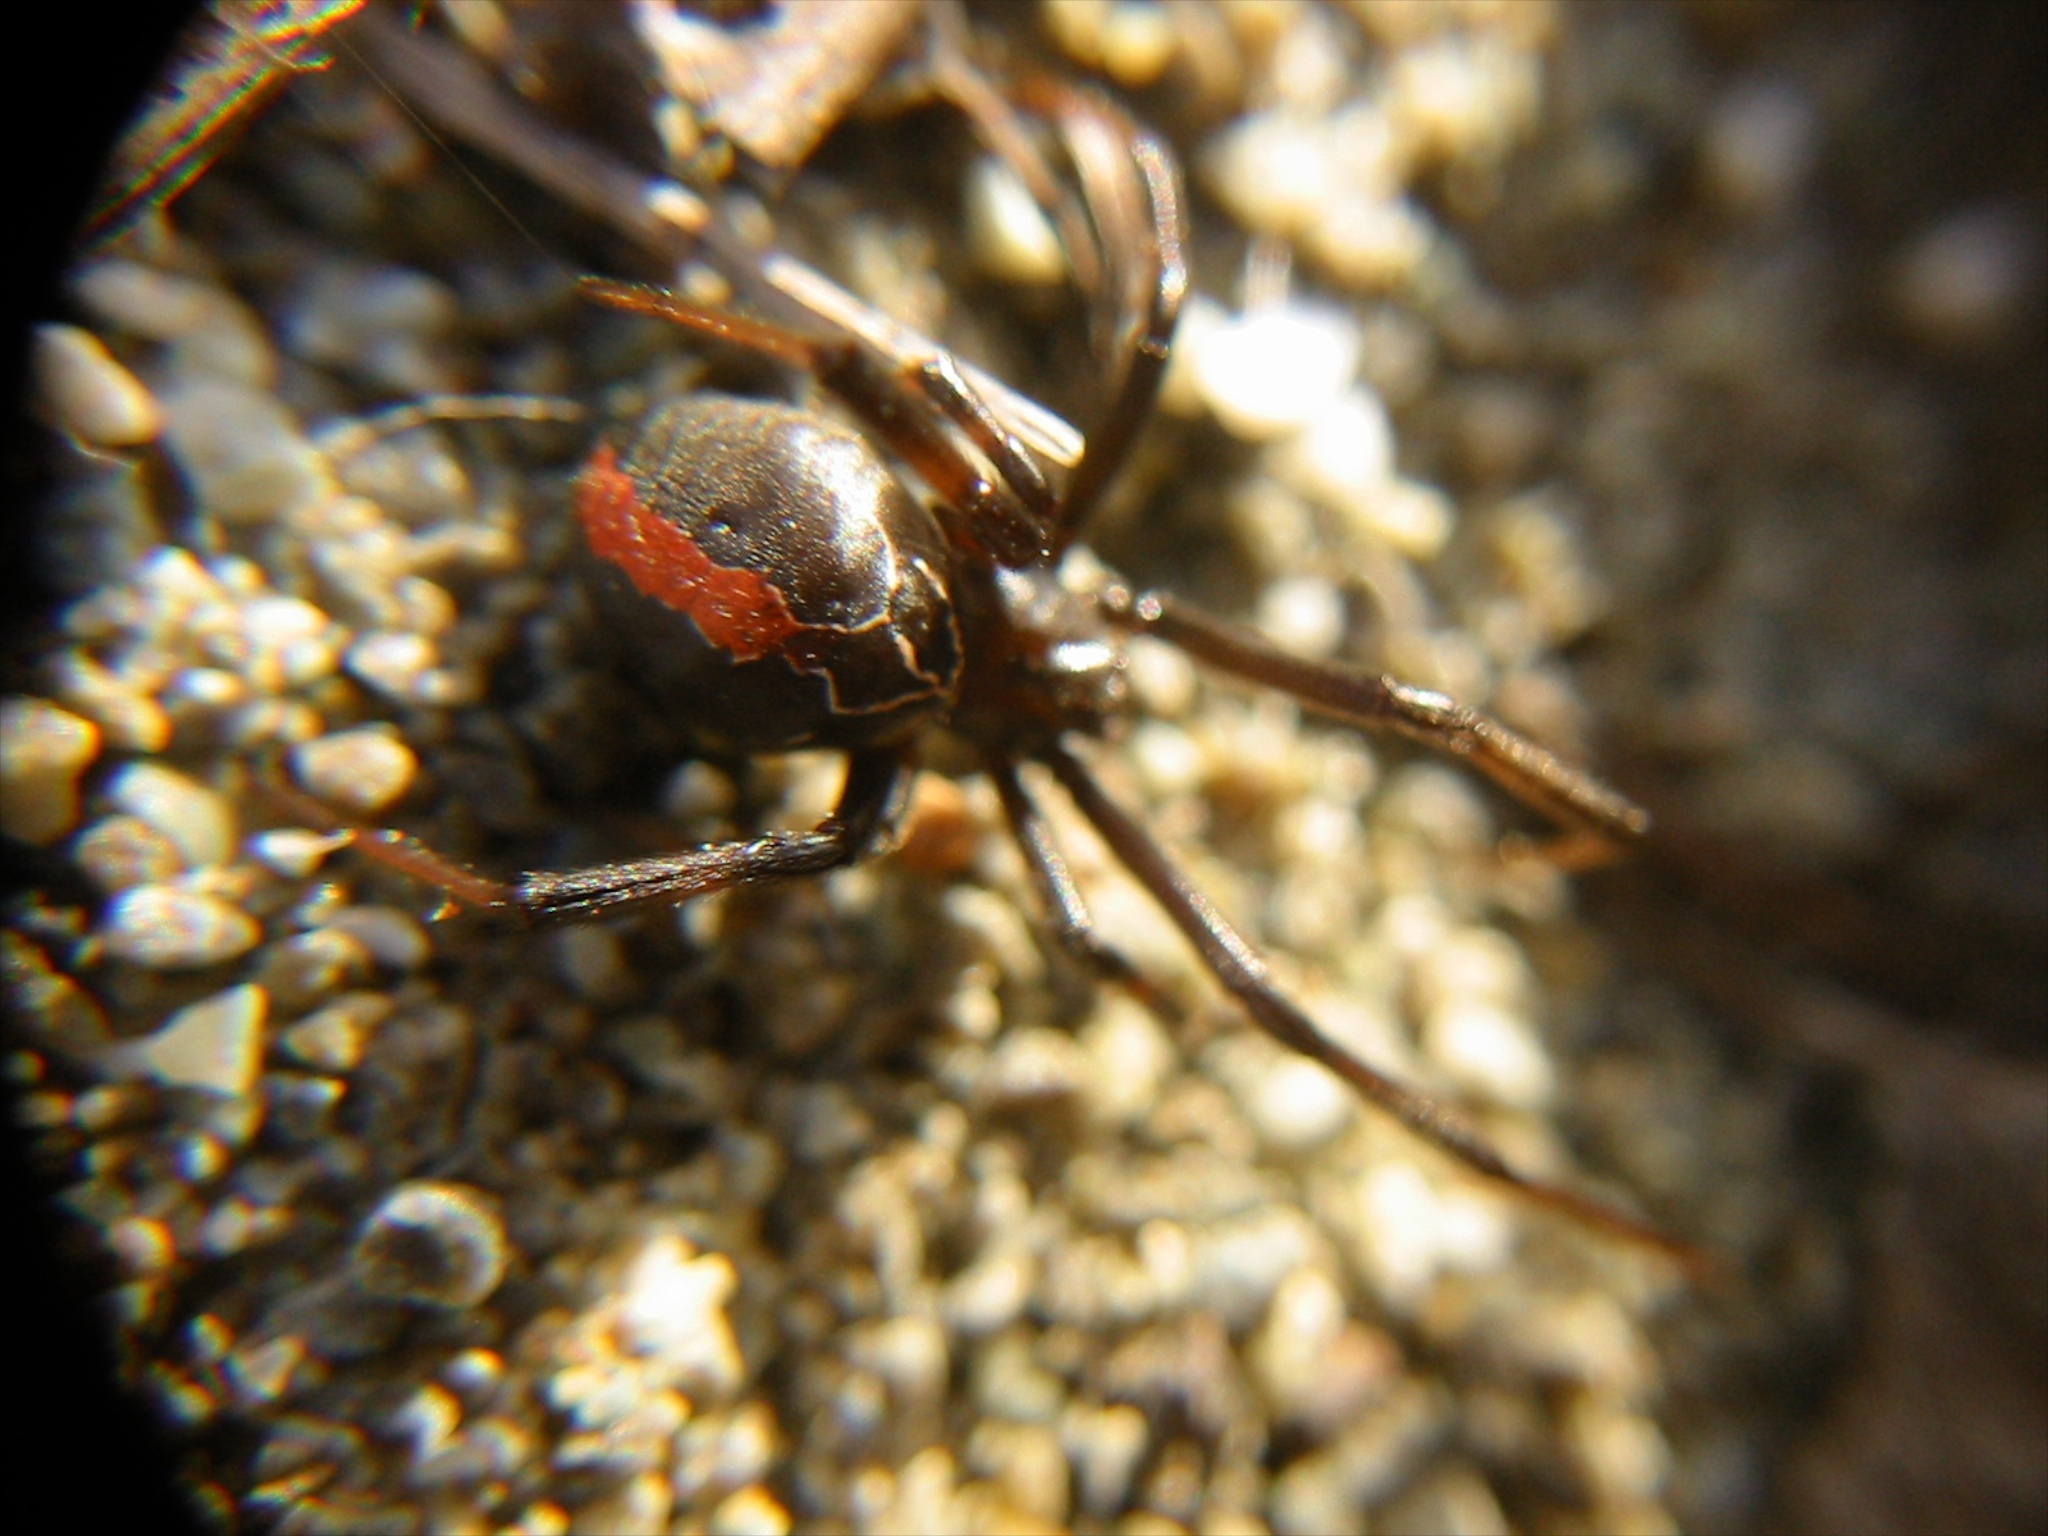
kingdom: Animalia
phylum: Arthropoda
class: Arachnida
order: Araneae
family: Theridiidae
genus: Latrodectus
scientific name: Latrodectus katipo
